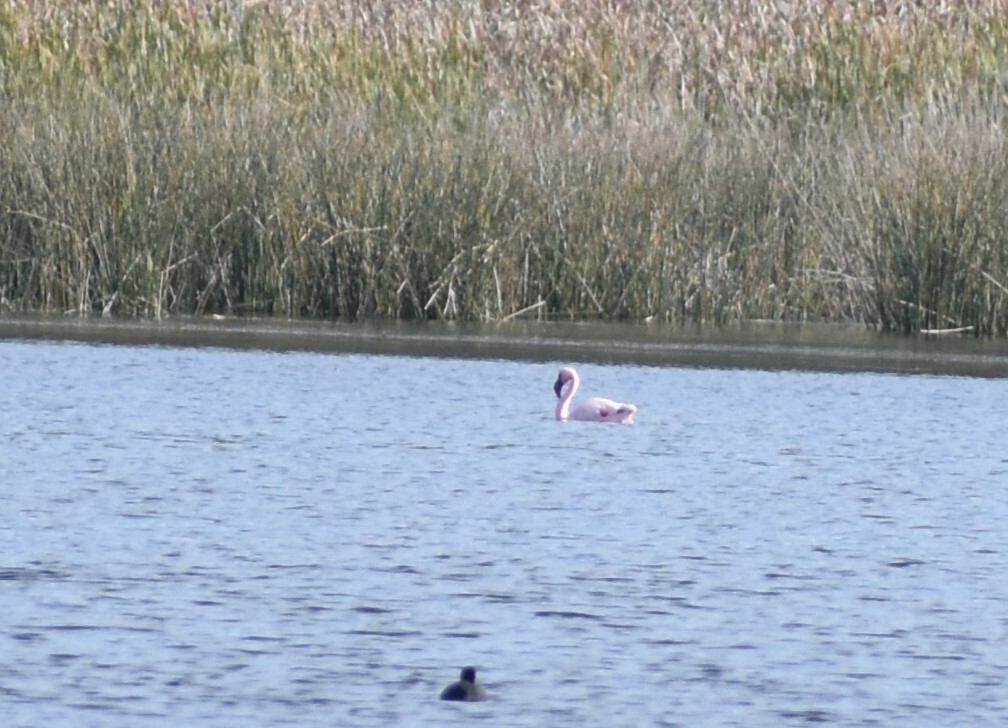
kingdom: Animalia
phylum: Chordata
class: Aves
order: Phoenicopteriformes
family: Phoenicopteridae
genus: Phoeniconaias
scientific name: Phoeniconaias minor
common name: Lesser flamingo
